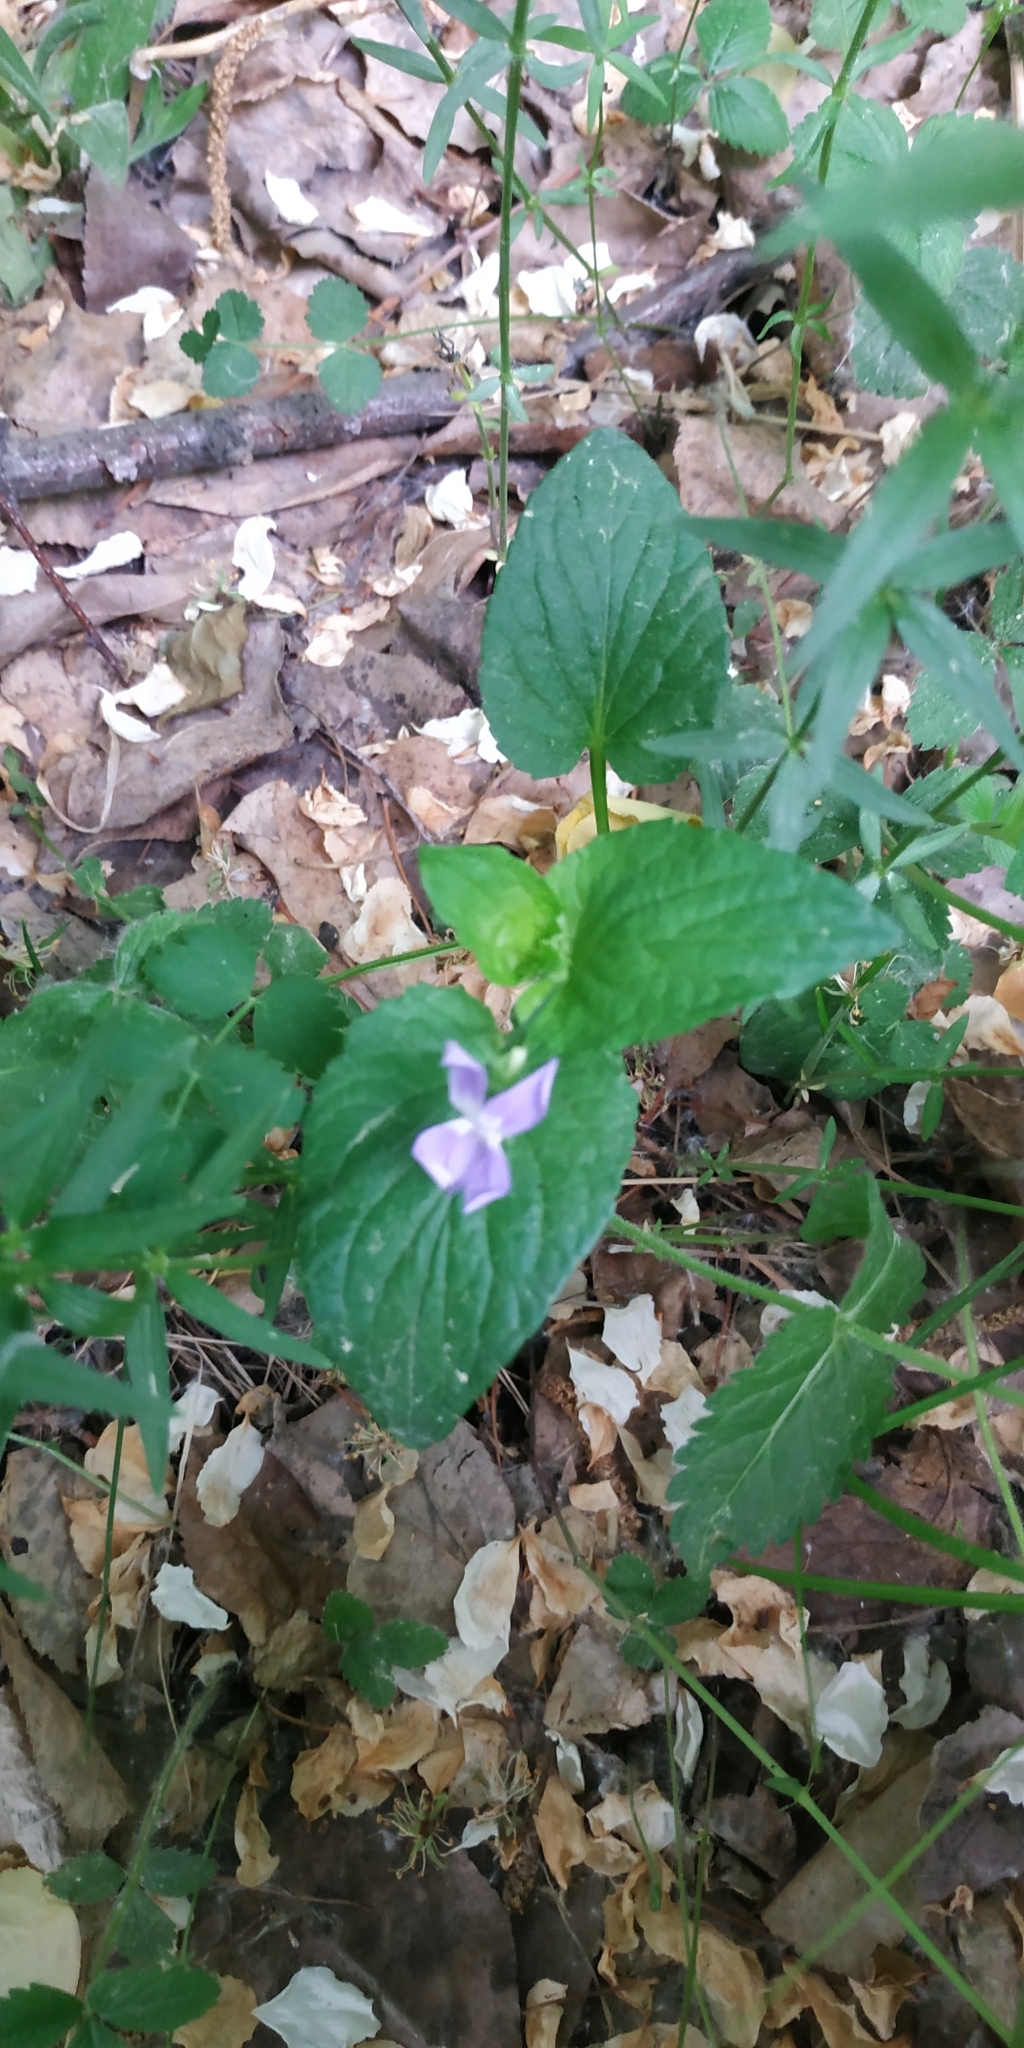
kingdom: Plantae
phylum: Tracheophyta
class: Magnoliopsida
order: Malpighiales
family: Violaceae
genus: Viola
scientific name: Viola
